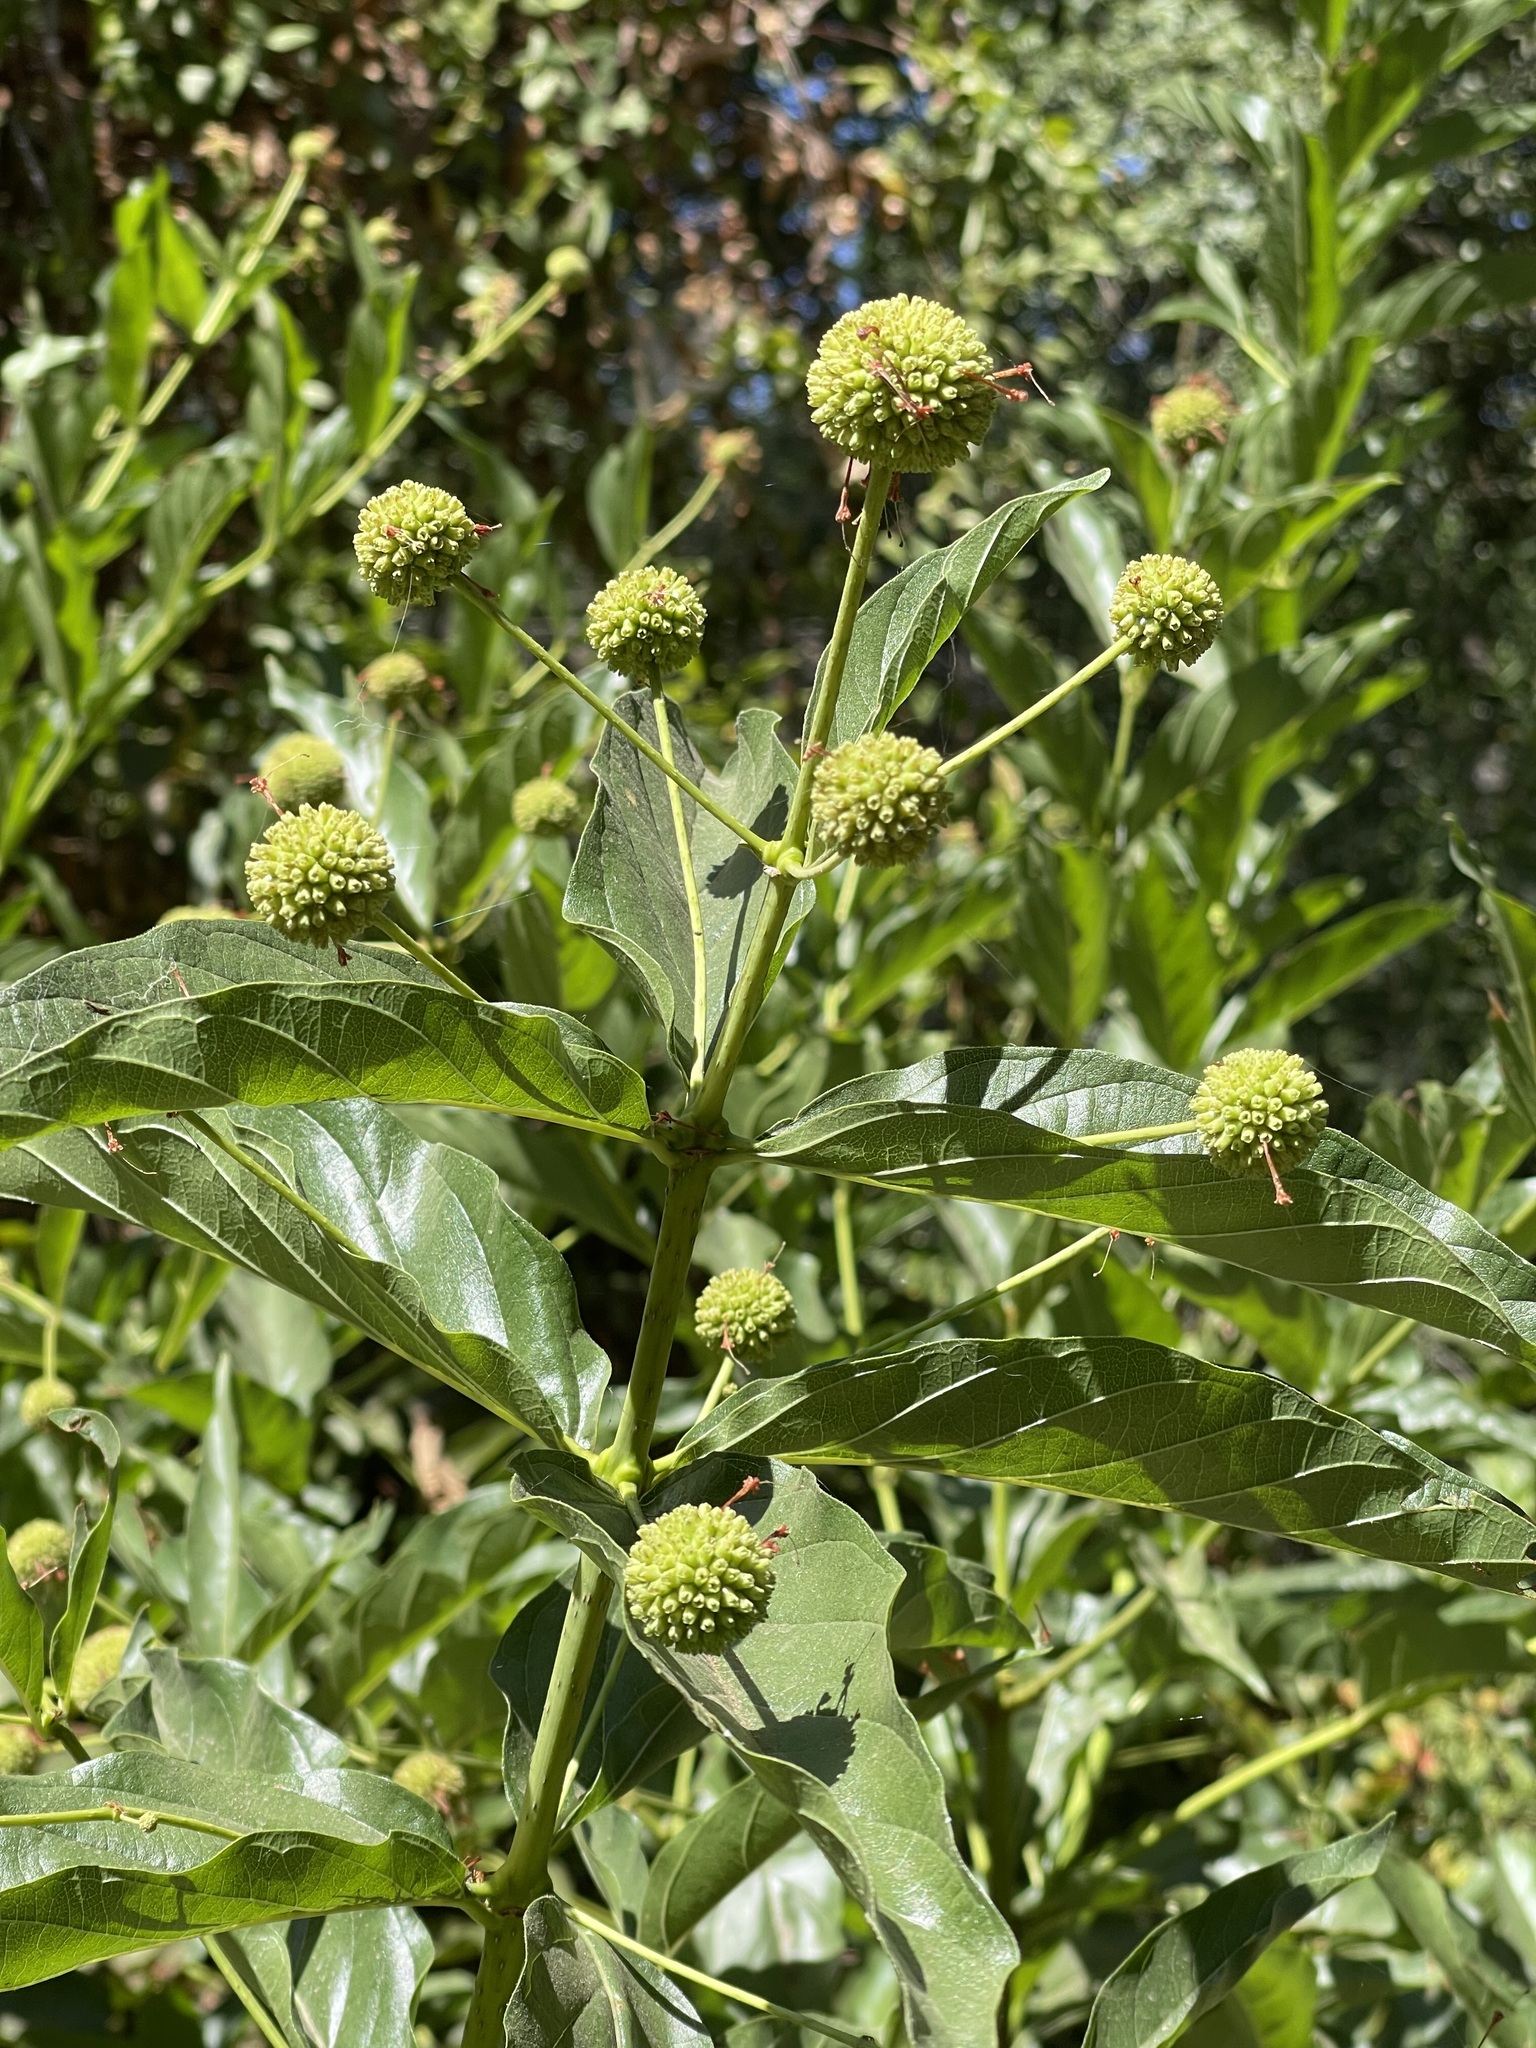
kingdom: Plantae
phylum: Tracheophyta
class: Magnoliopsida
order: Gentianales
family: Rubiaceae
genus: Cephalanthus
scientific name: Cephalanthus occidentalis
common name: Button-willow
